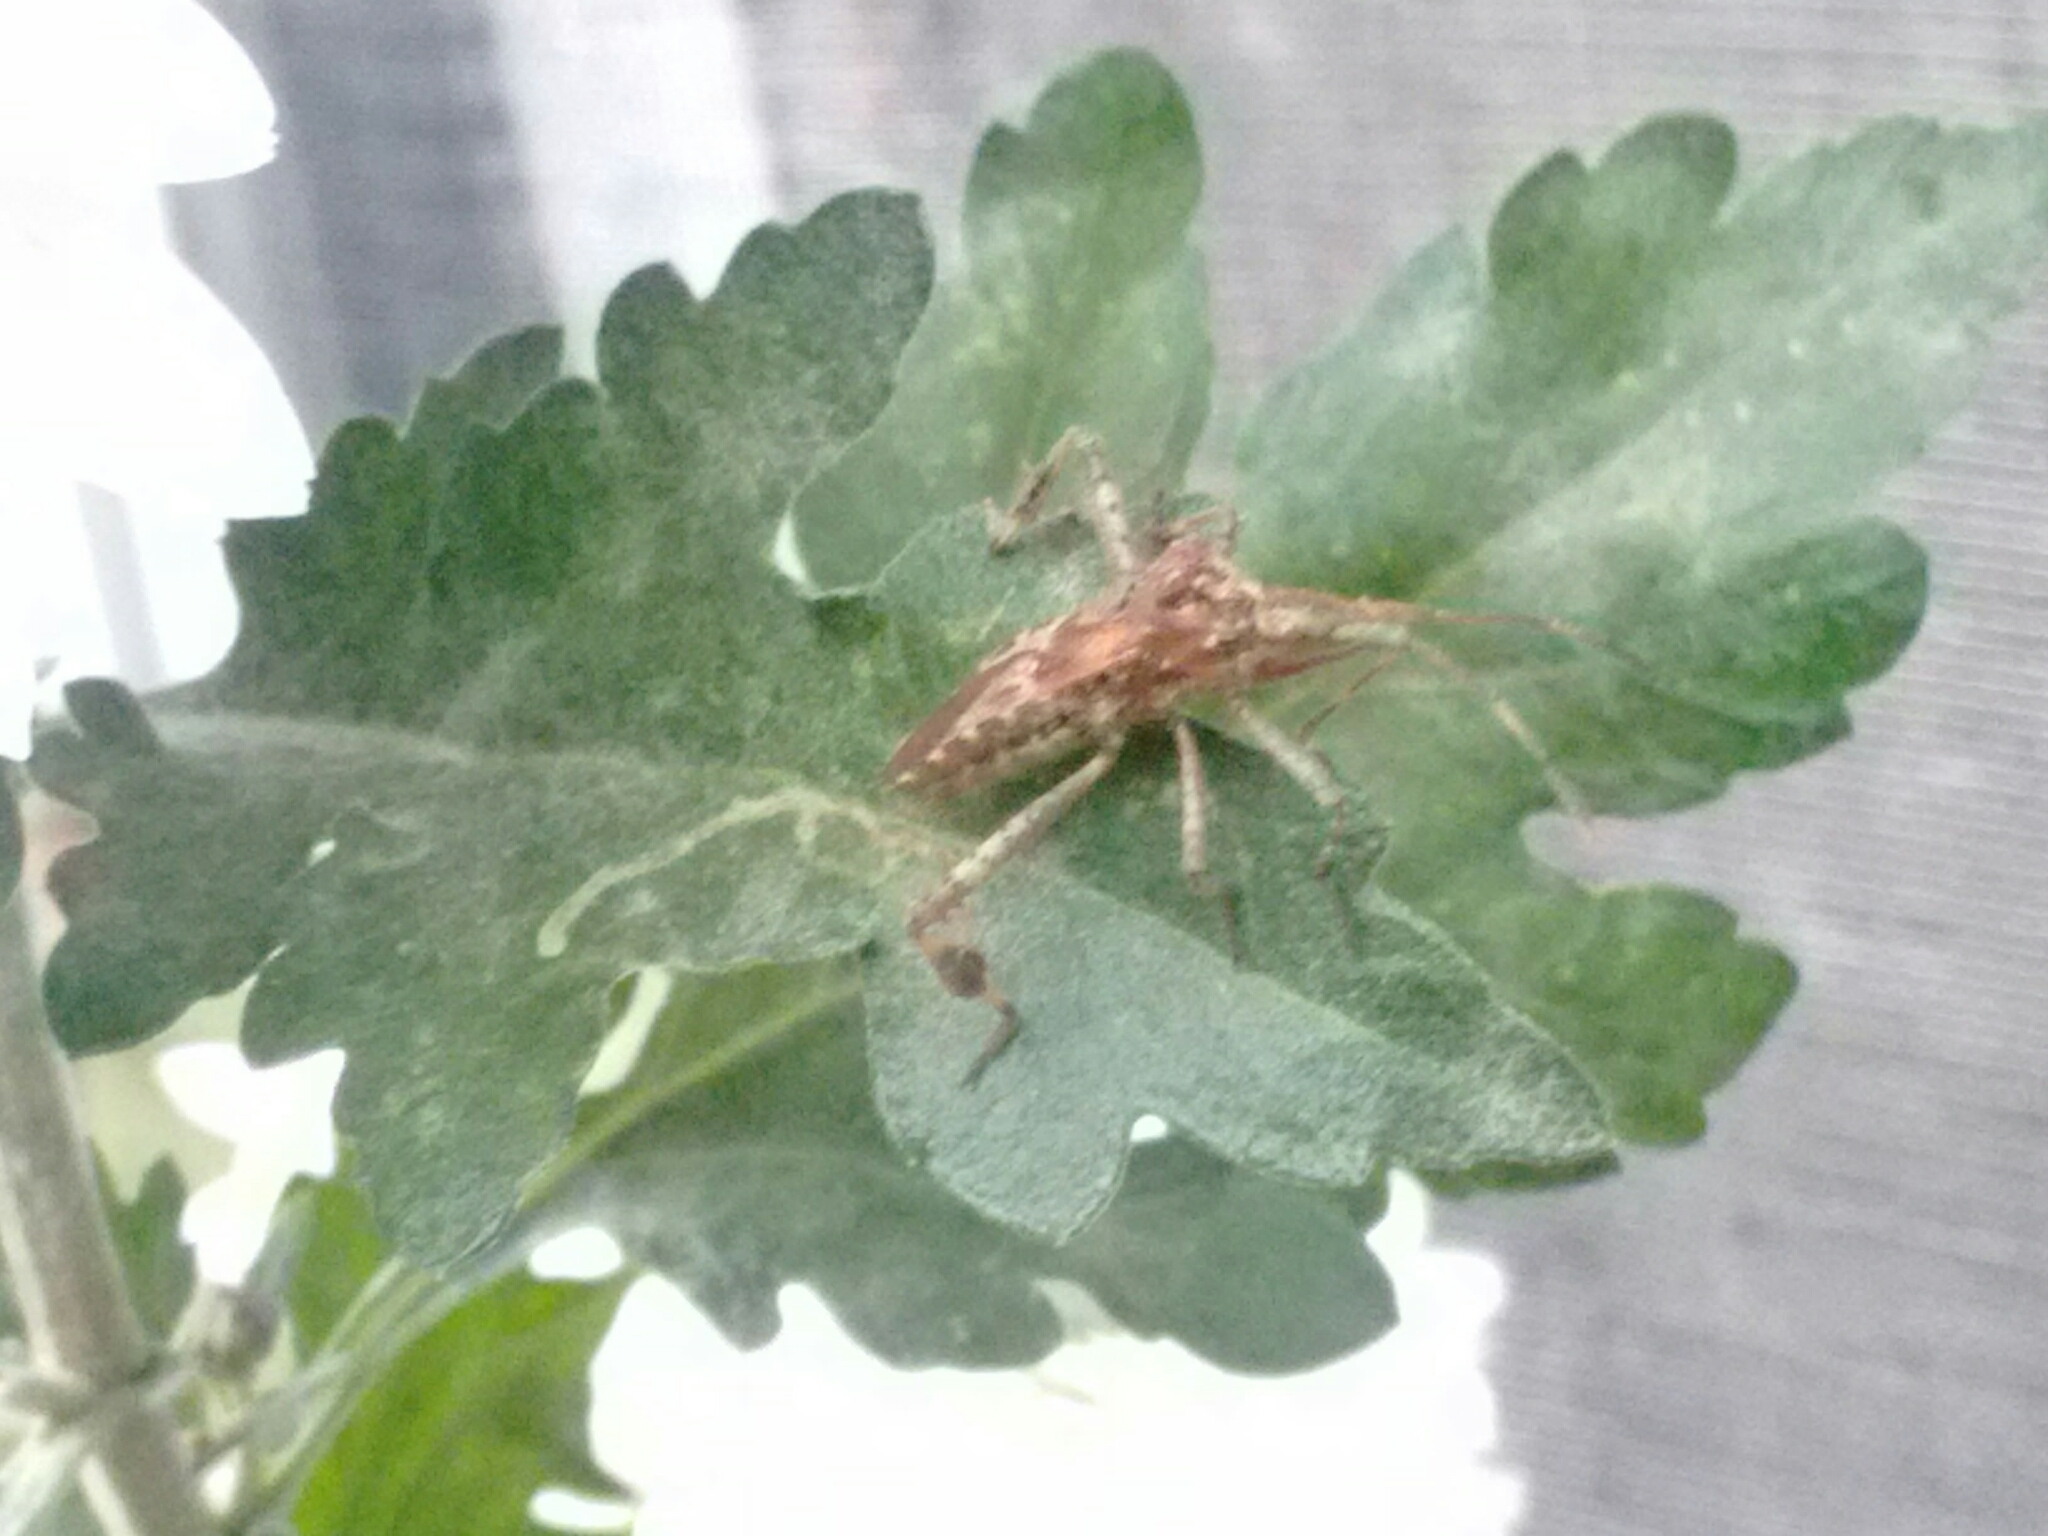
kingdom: Animalia
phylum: Arthropoda
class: Insecta
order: Hemiptera
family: Coreidae
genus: Leptoglossus
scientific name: Leptoglossus occidentalis
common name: Western conifer-seed bug
